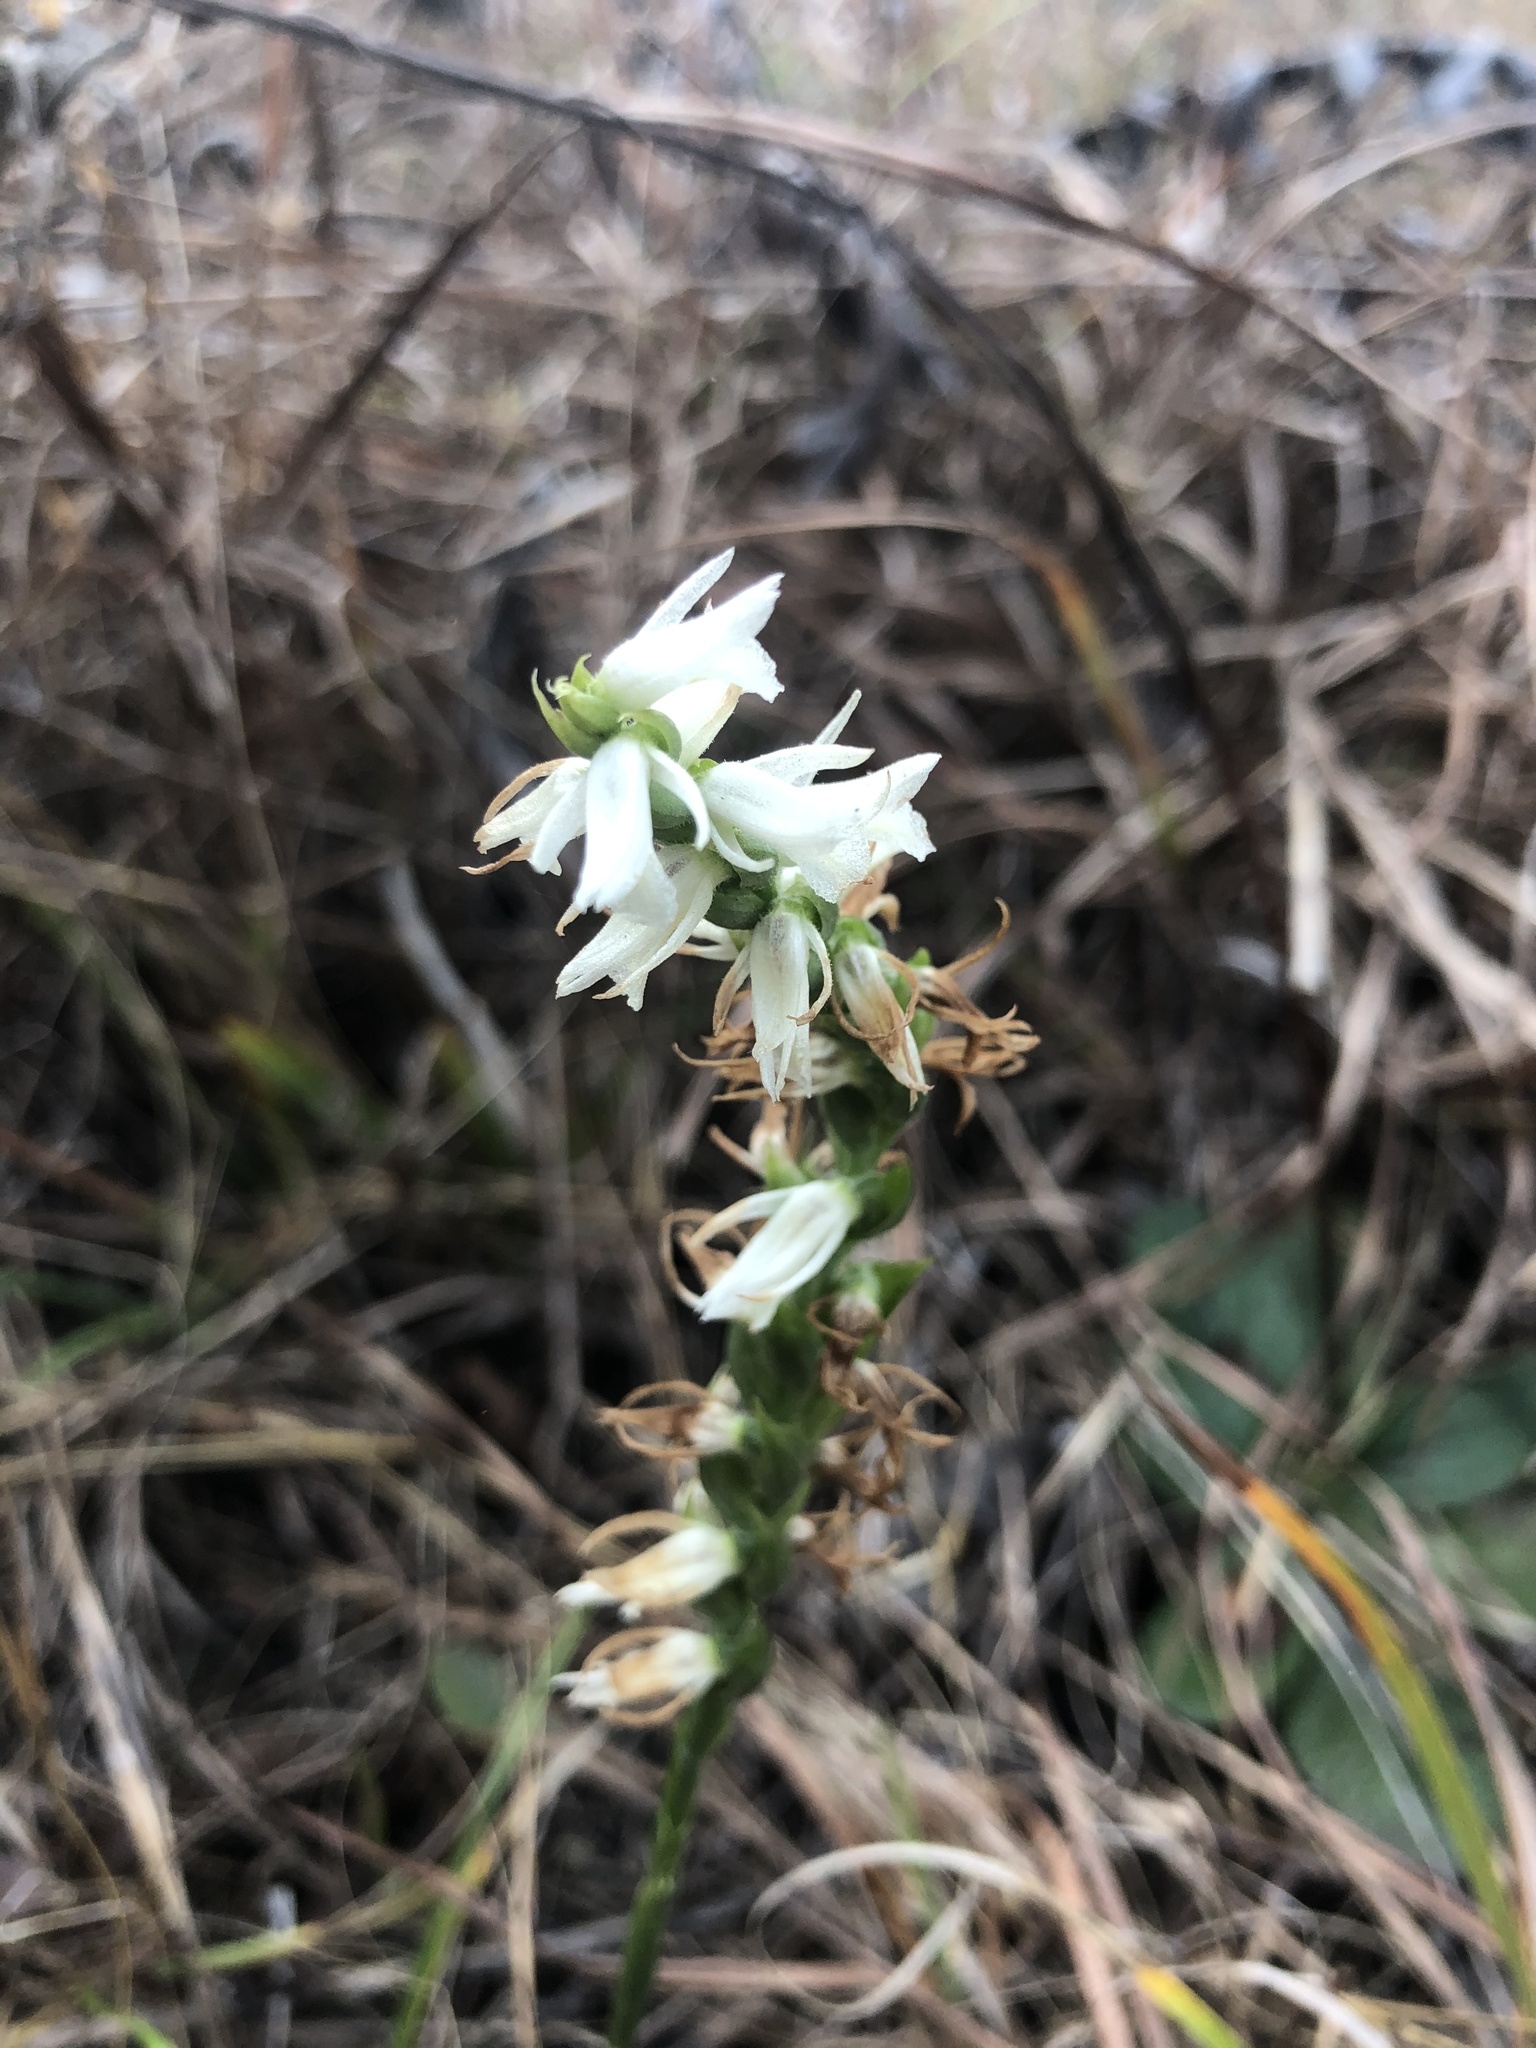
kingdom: Plantae
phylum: Tracheophyta
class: Liliopsida
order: Asparagales
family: Orchidaceae
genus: Spiranthes
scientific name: Spiranthes magnicamporum
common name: Great plains ladies'-tresses
